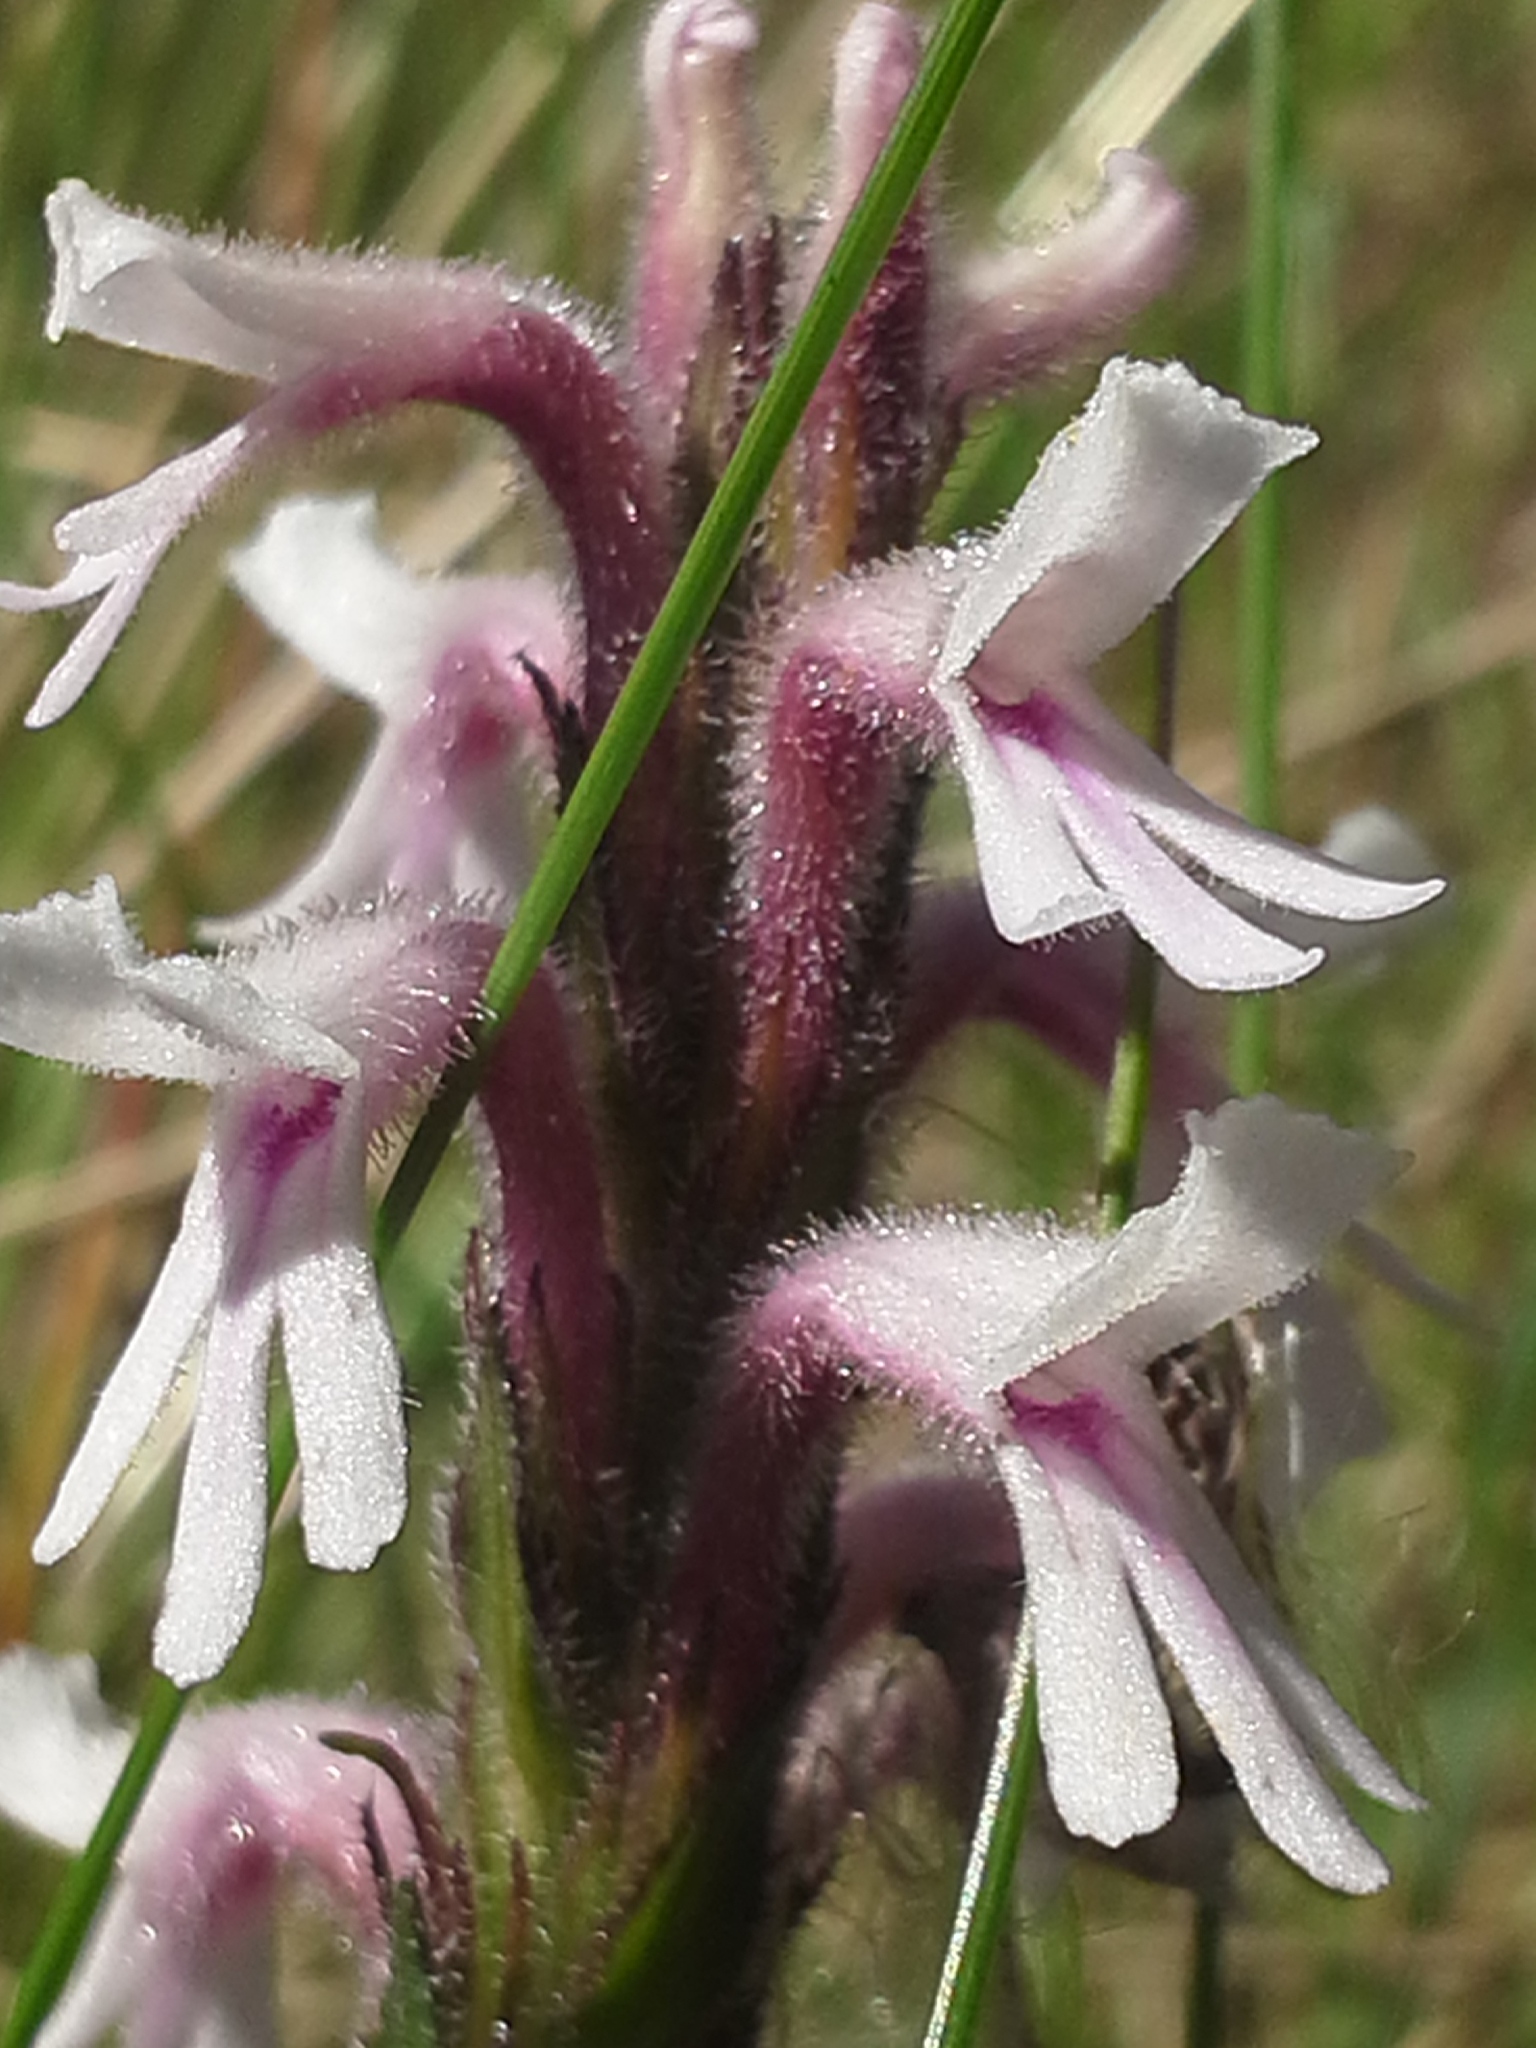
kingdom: Plantae
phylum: Tracheophyta
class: Magnoliopsida
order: Lamiales
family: Orobanchaceae
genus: Striga
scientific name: Striga bilabiata
